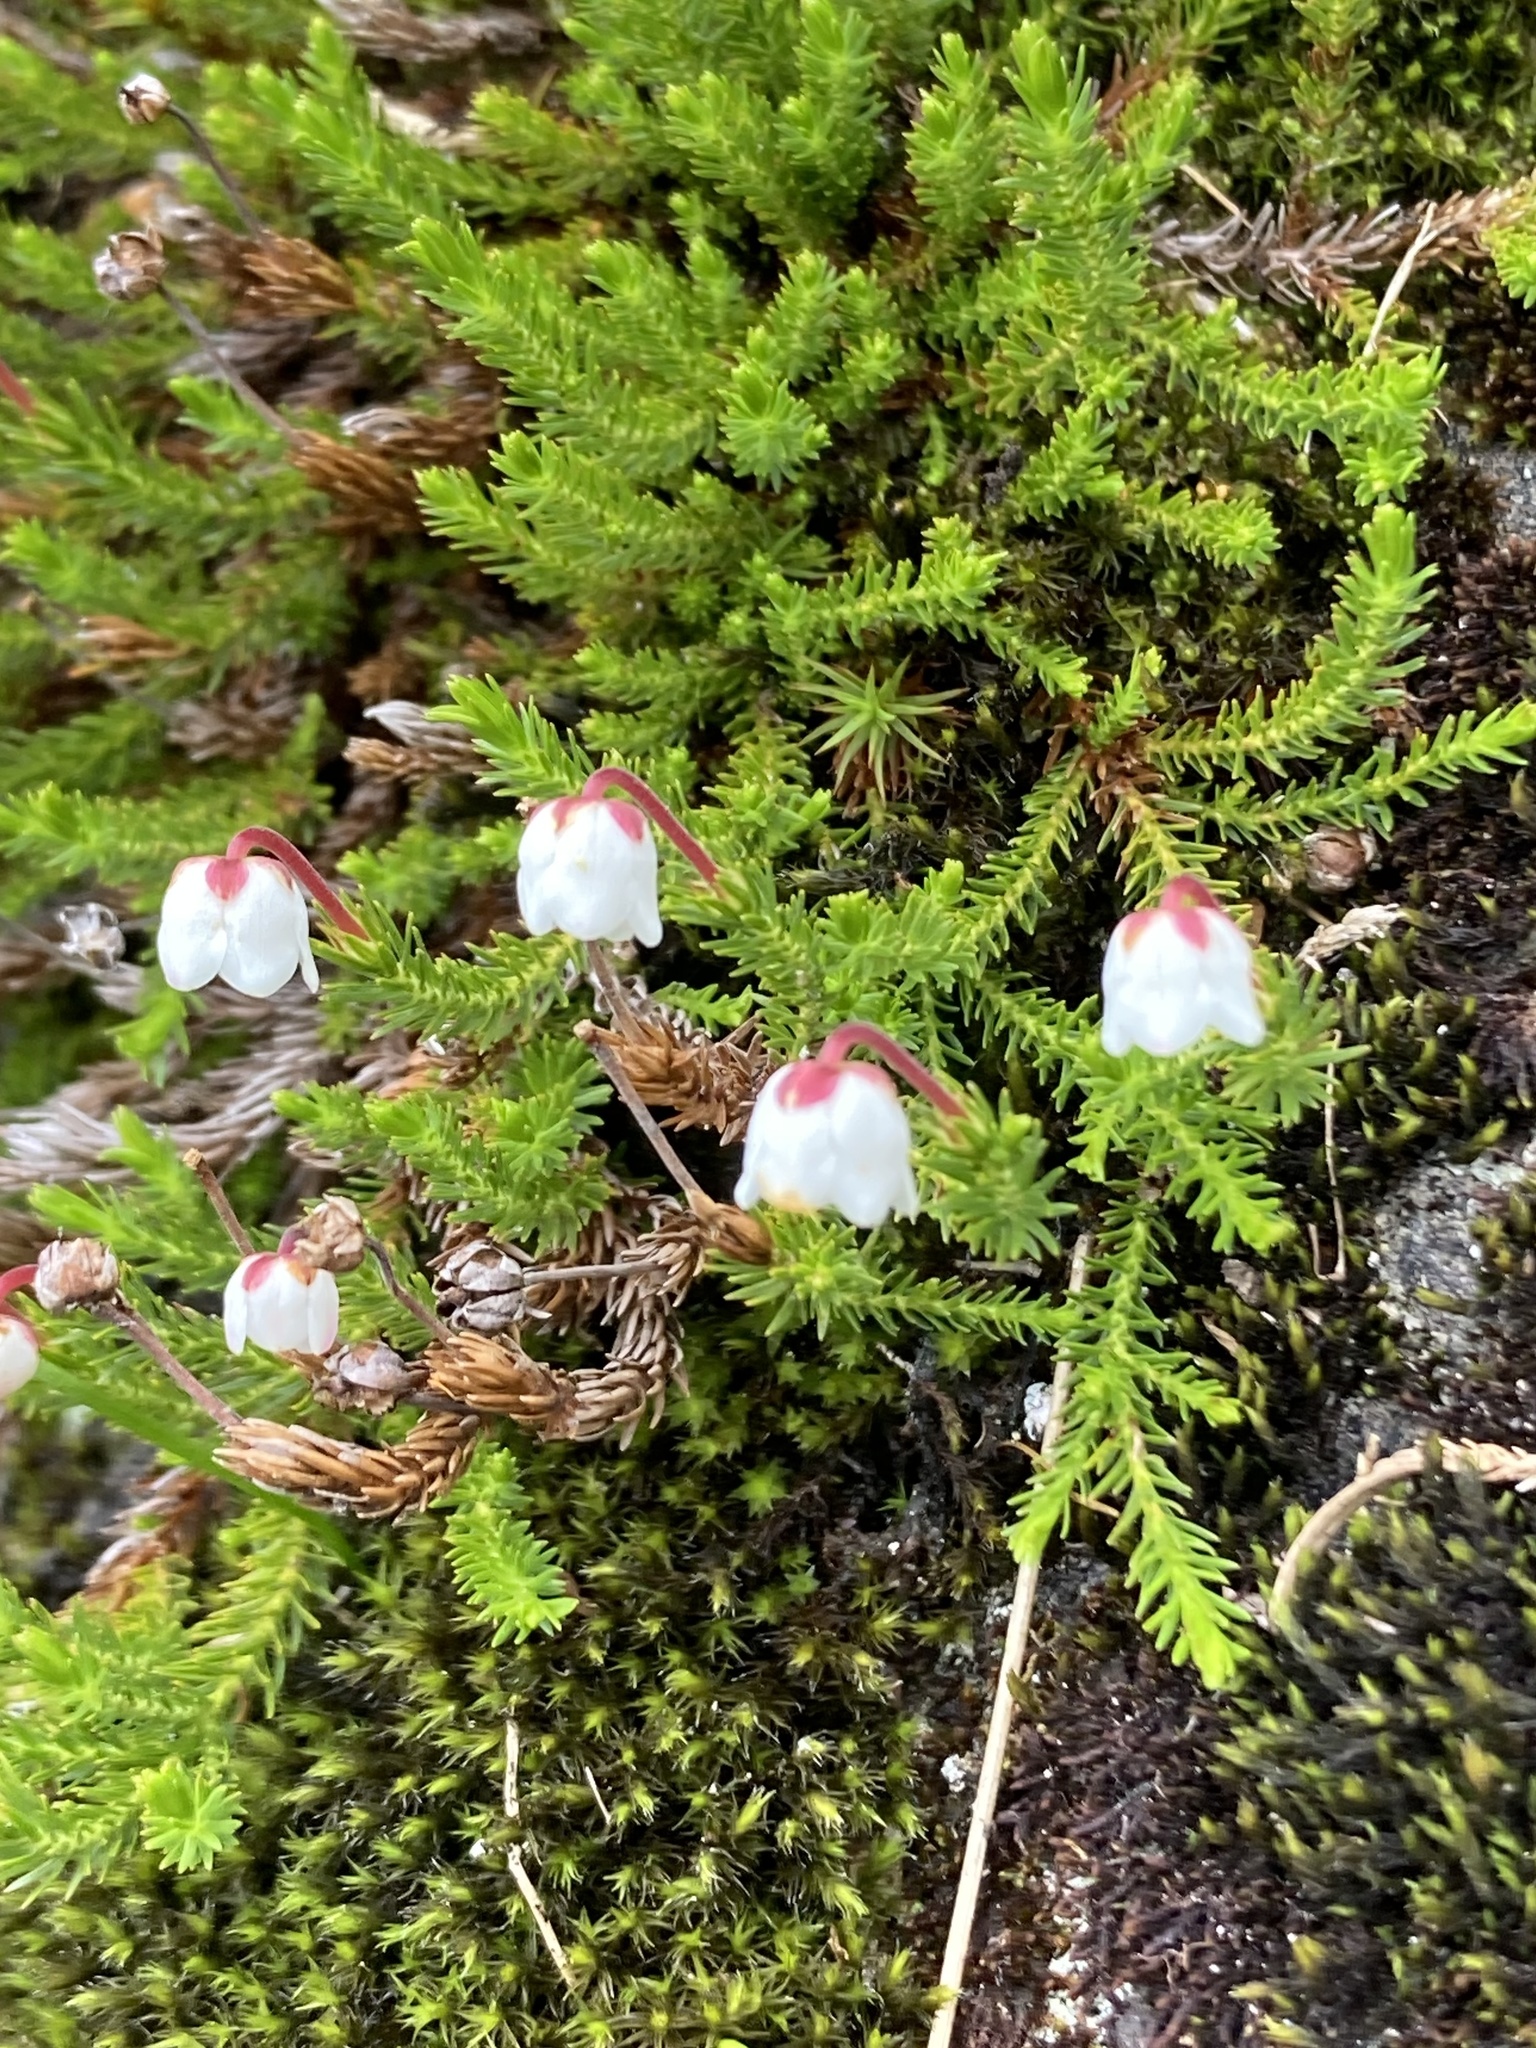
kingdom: Plantae
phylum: Tracheophyta
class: Magnoliopsida
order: Ericales
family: Ericaceae
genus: Harrimanella
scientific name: Harrimanella hypnoides
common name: Moss bell heather
